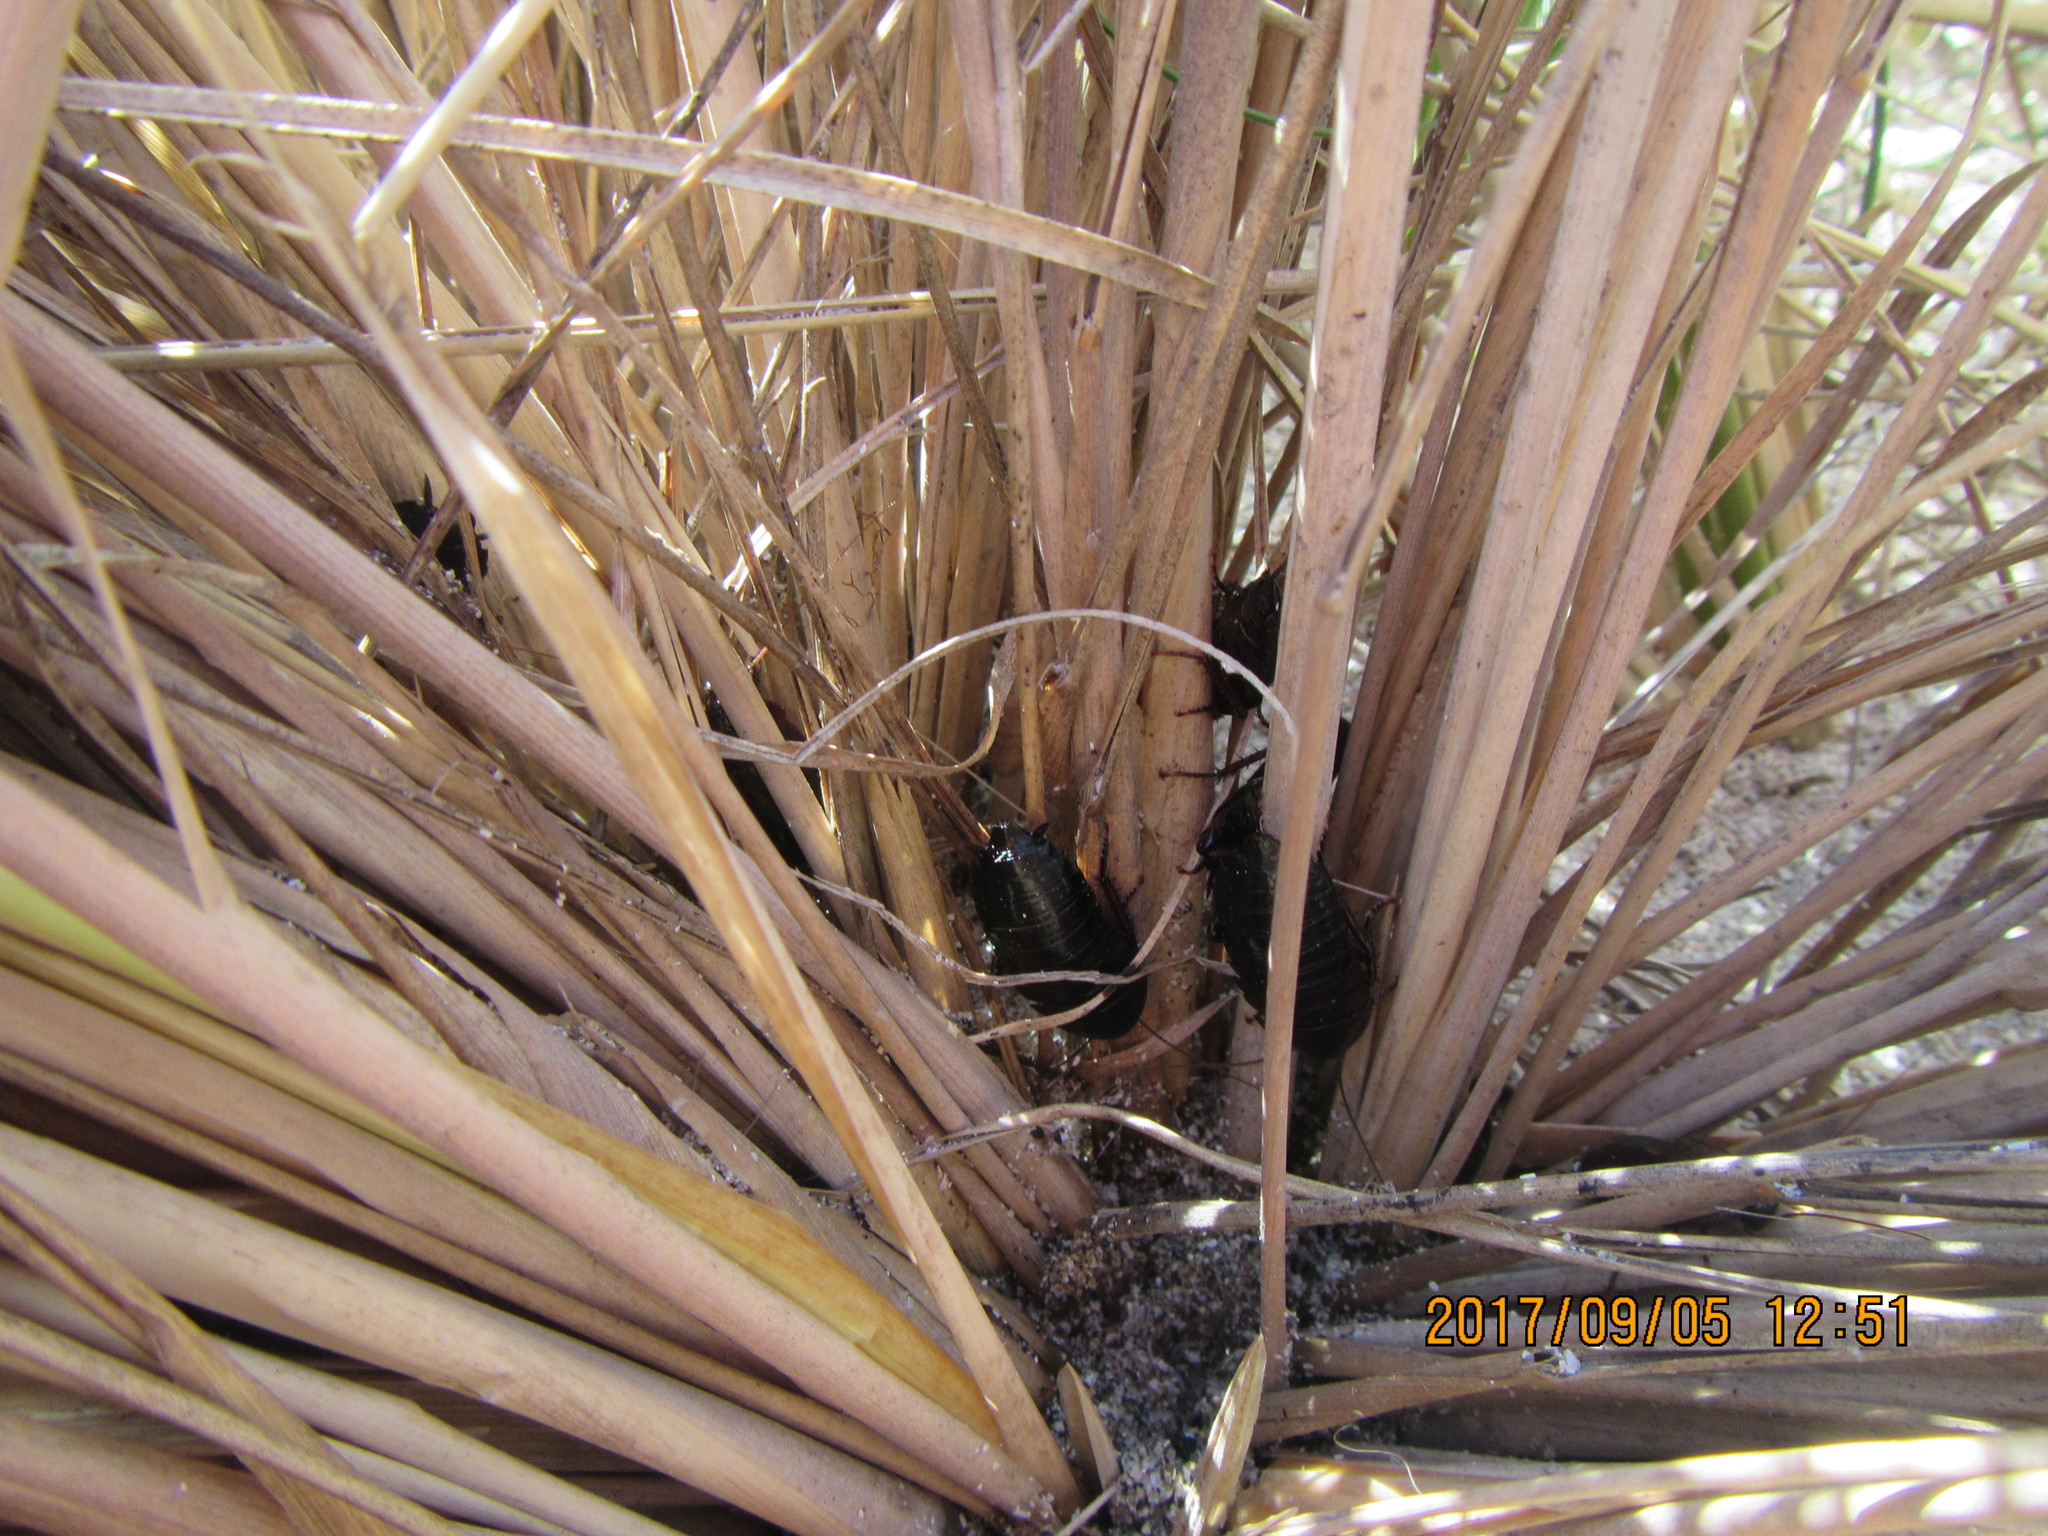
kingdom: Animalia
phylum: Arthropoda
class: Insecta
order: Blattodea
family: Blattidae
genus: Maoriblatta
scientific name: Maoriblatta novaeseelandiae
